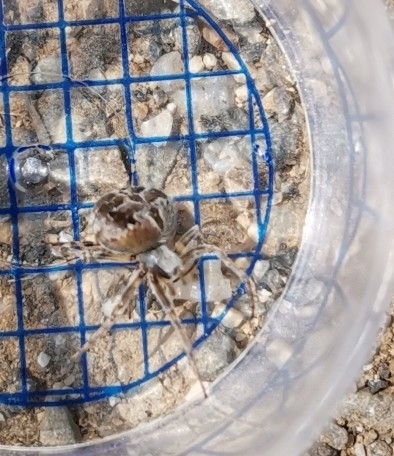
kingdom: Animalia
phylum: Arthropoda
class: Arachnida
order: Araneae
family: Araneidae
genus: Agalenatea
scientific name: Agalenatea redii
